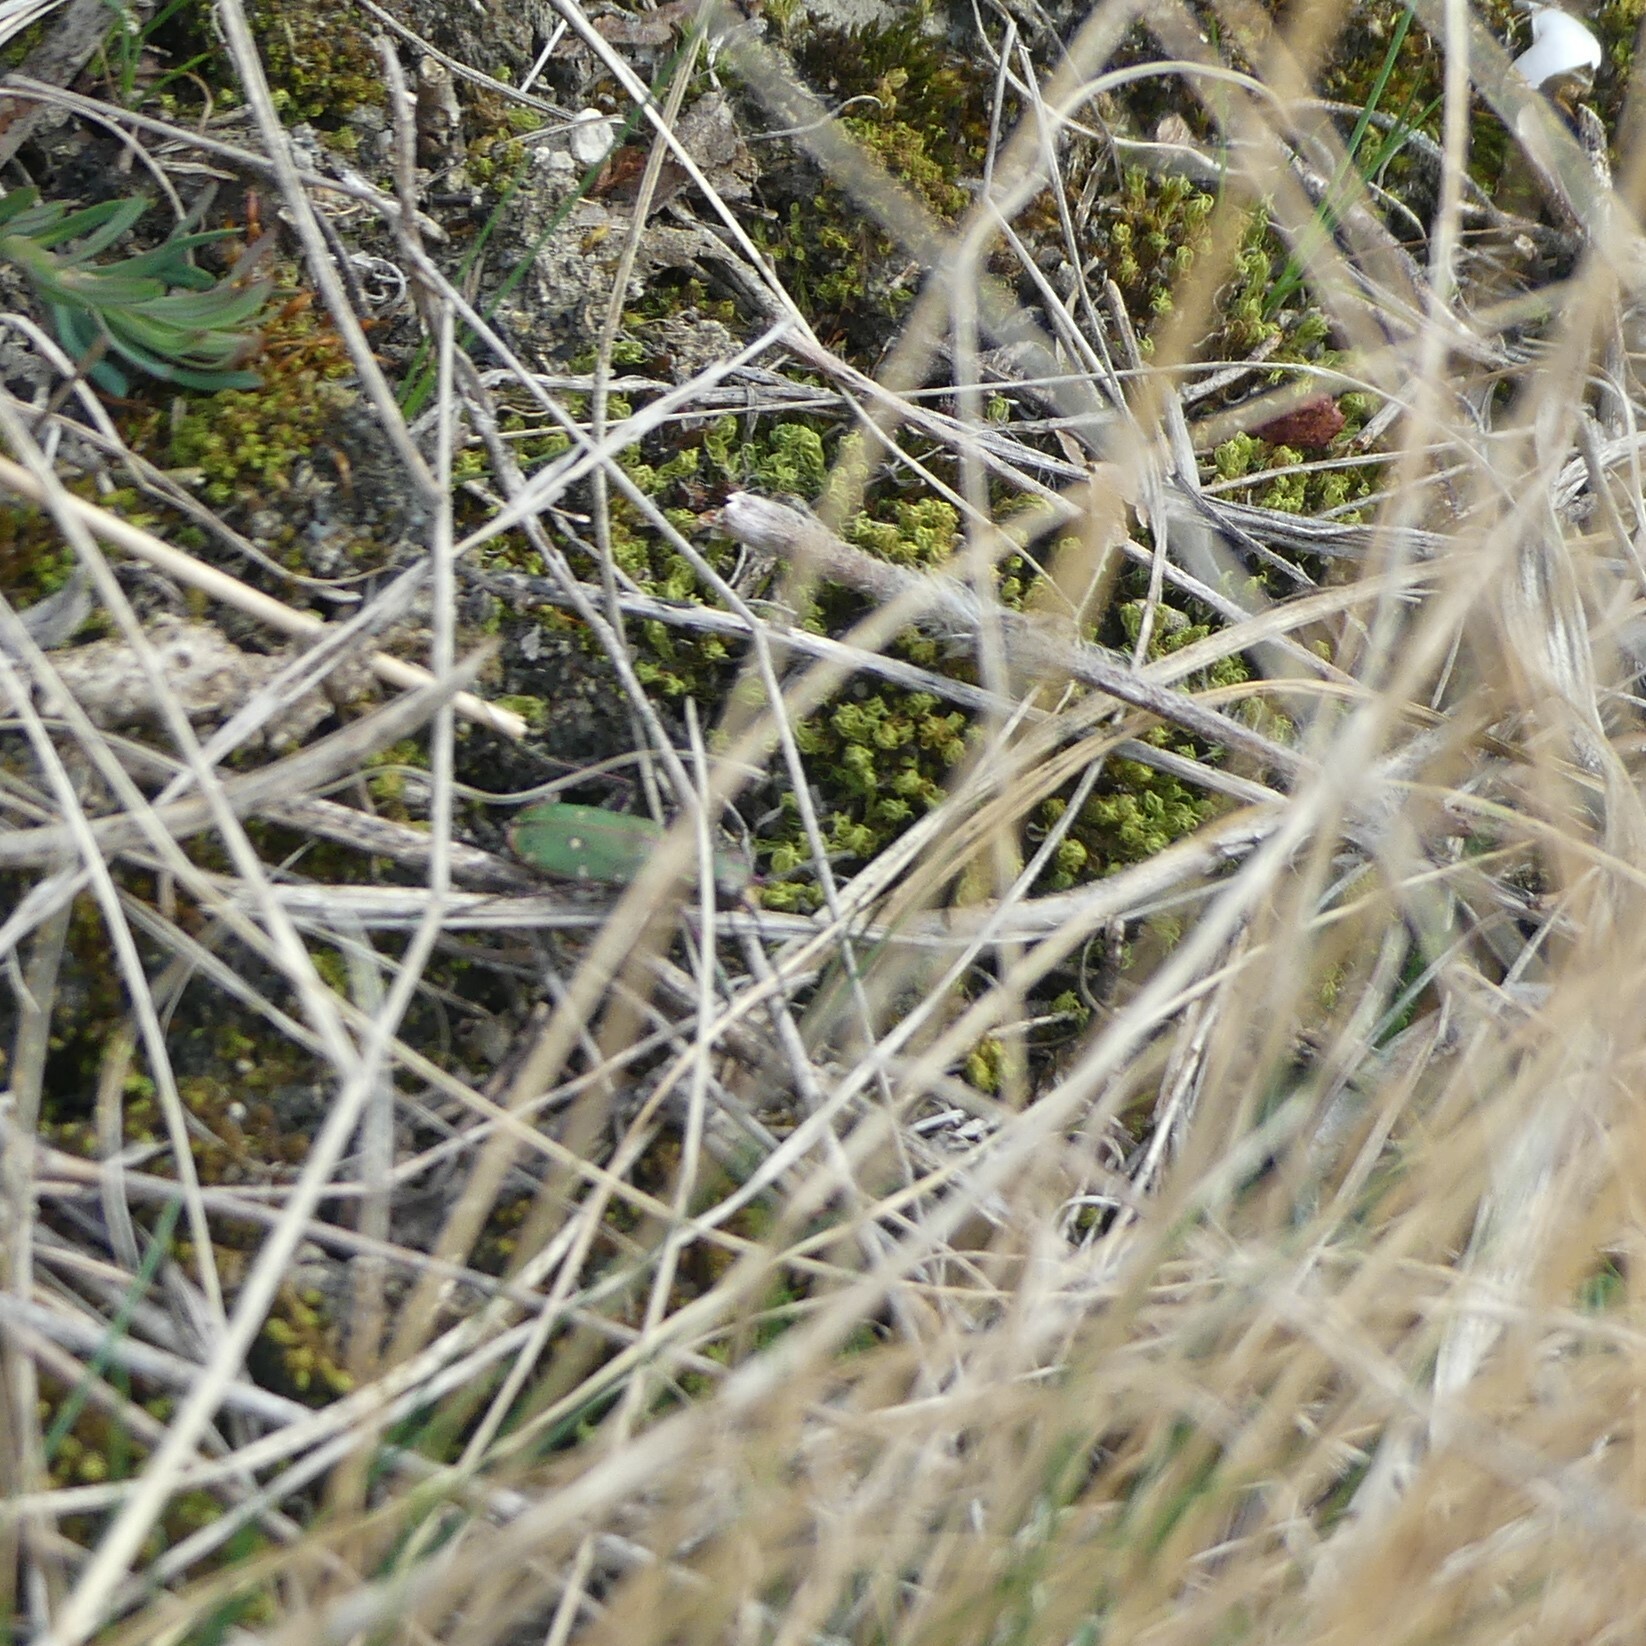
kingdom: Animalia
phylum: Arthropoda
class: Insecta
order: Coleoptera
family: Carabidae
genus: Cicindela
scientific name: Cicindela campestris
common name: Common tiger beetle
